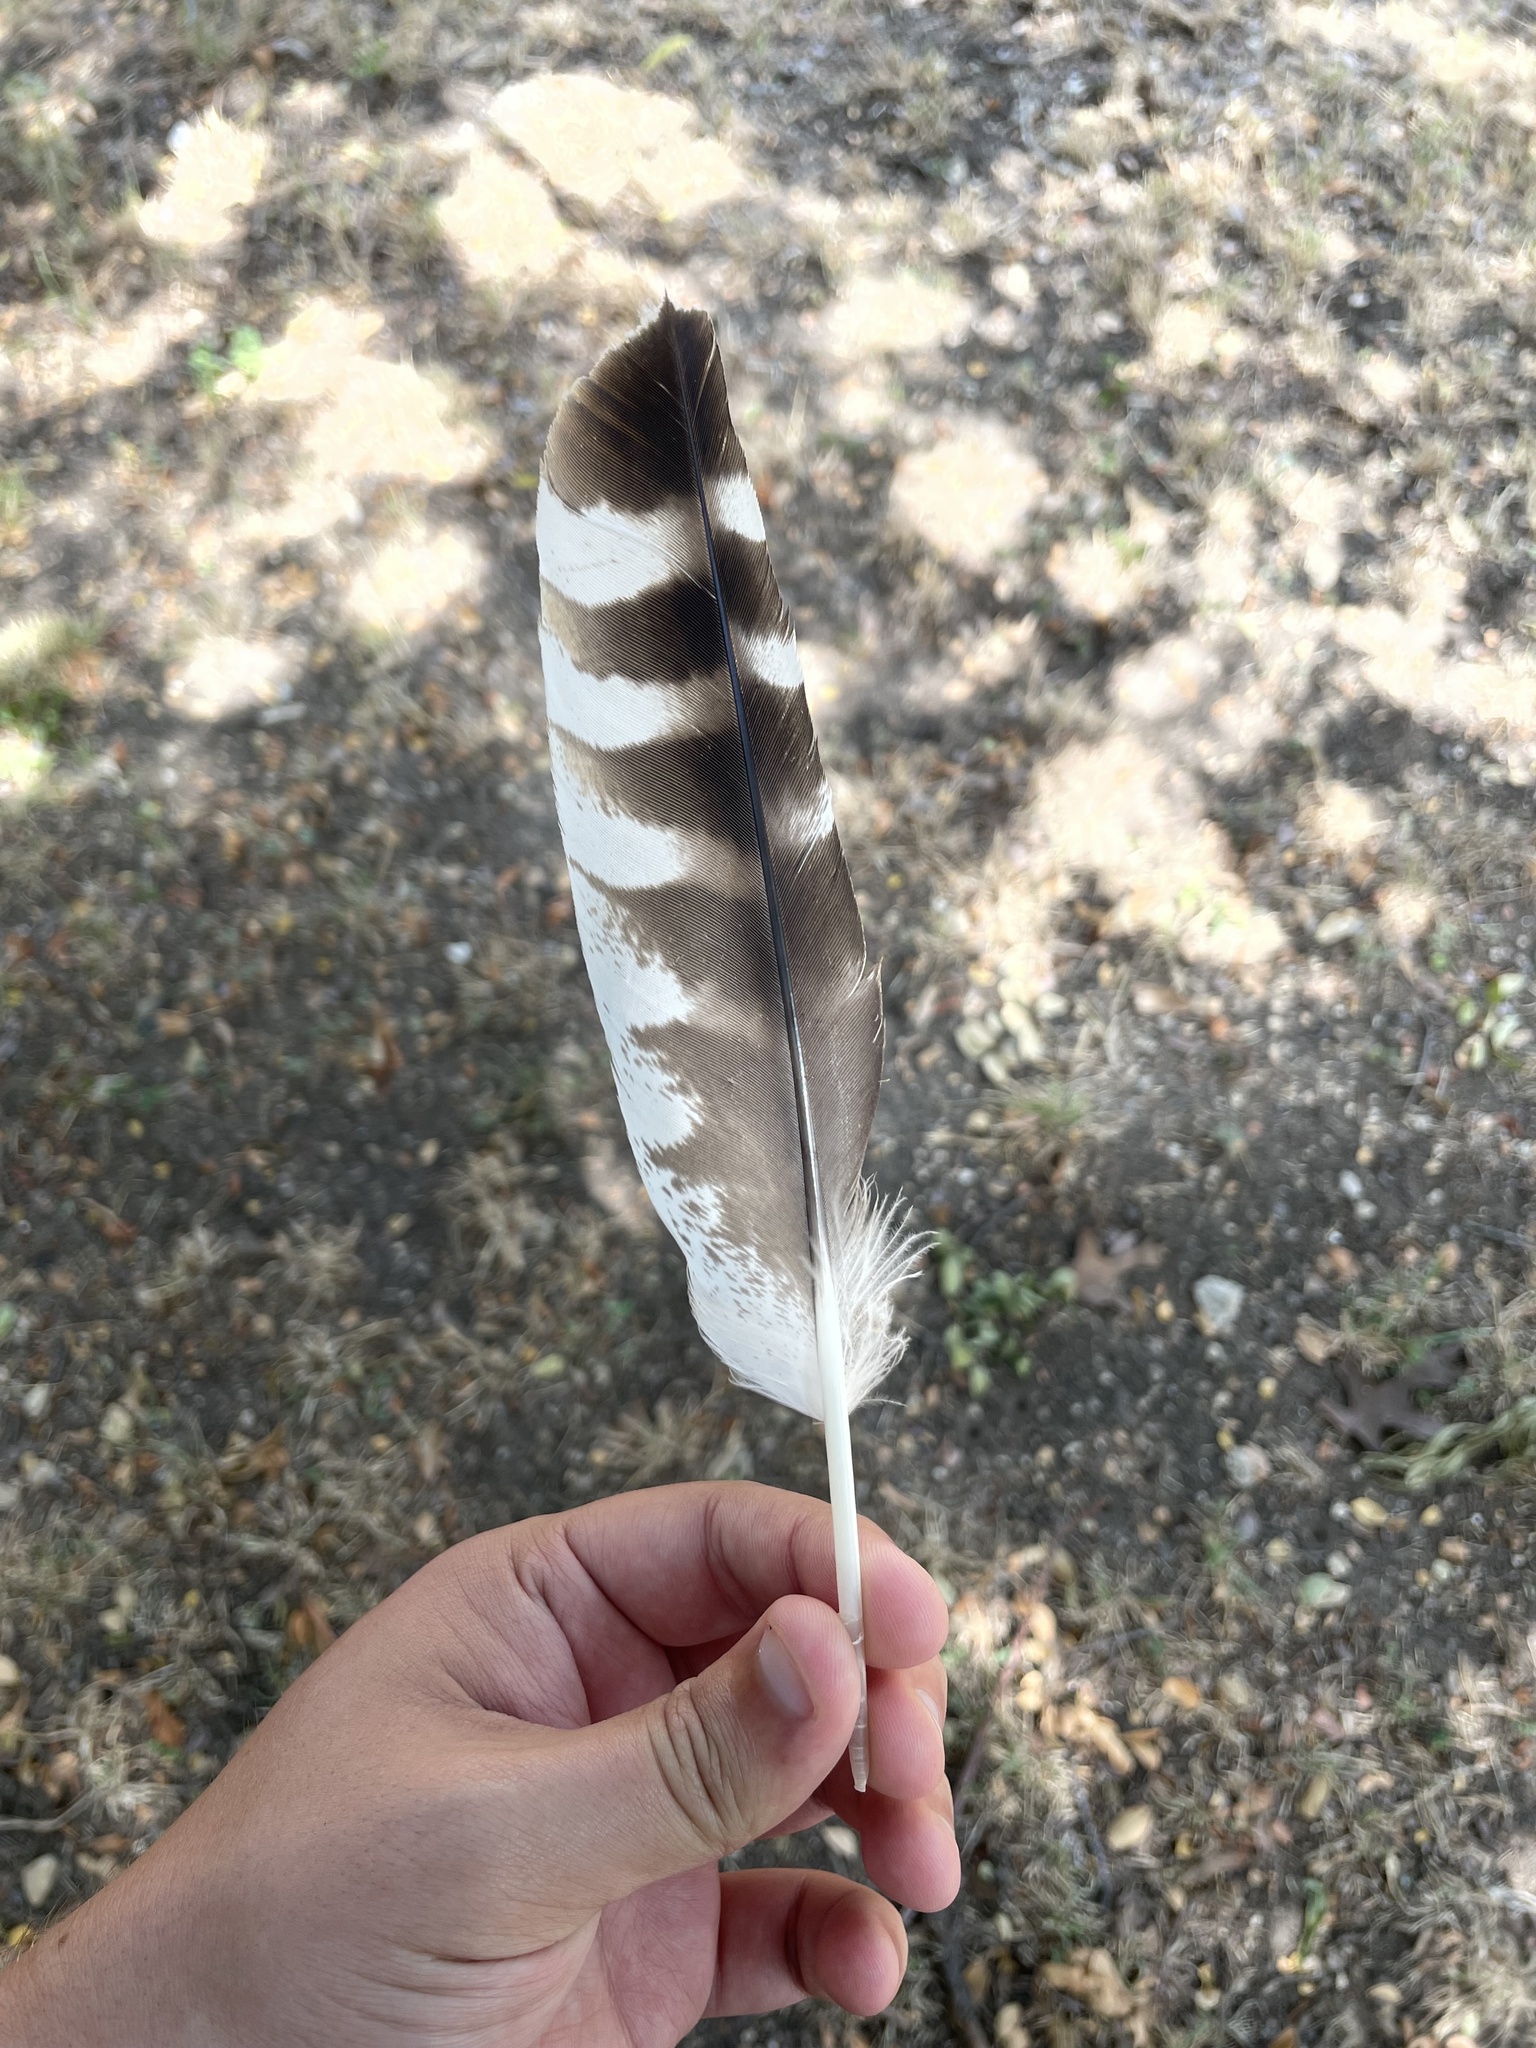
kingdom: Animalia
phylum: Chordata
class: Aves
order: Accipitriformes
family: Accipitridae
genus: Buteo
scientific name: Buteo lineatus
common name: Red-shouldered hawk
